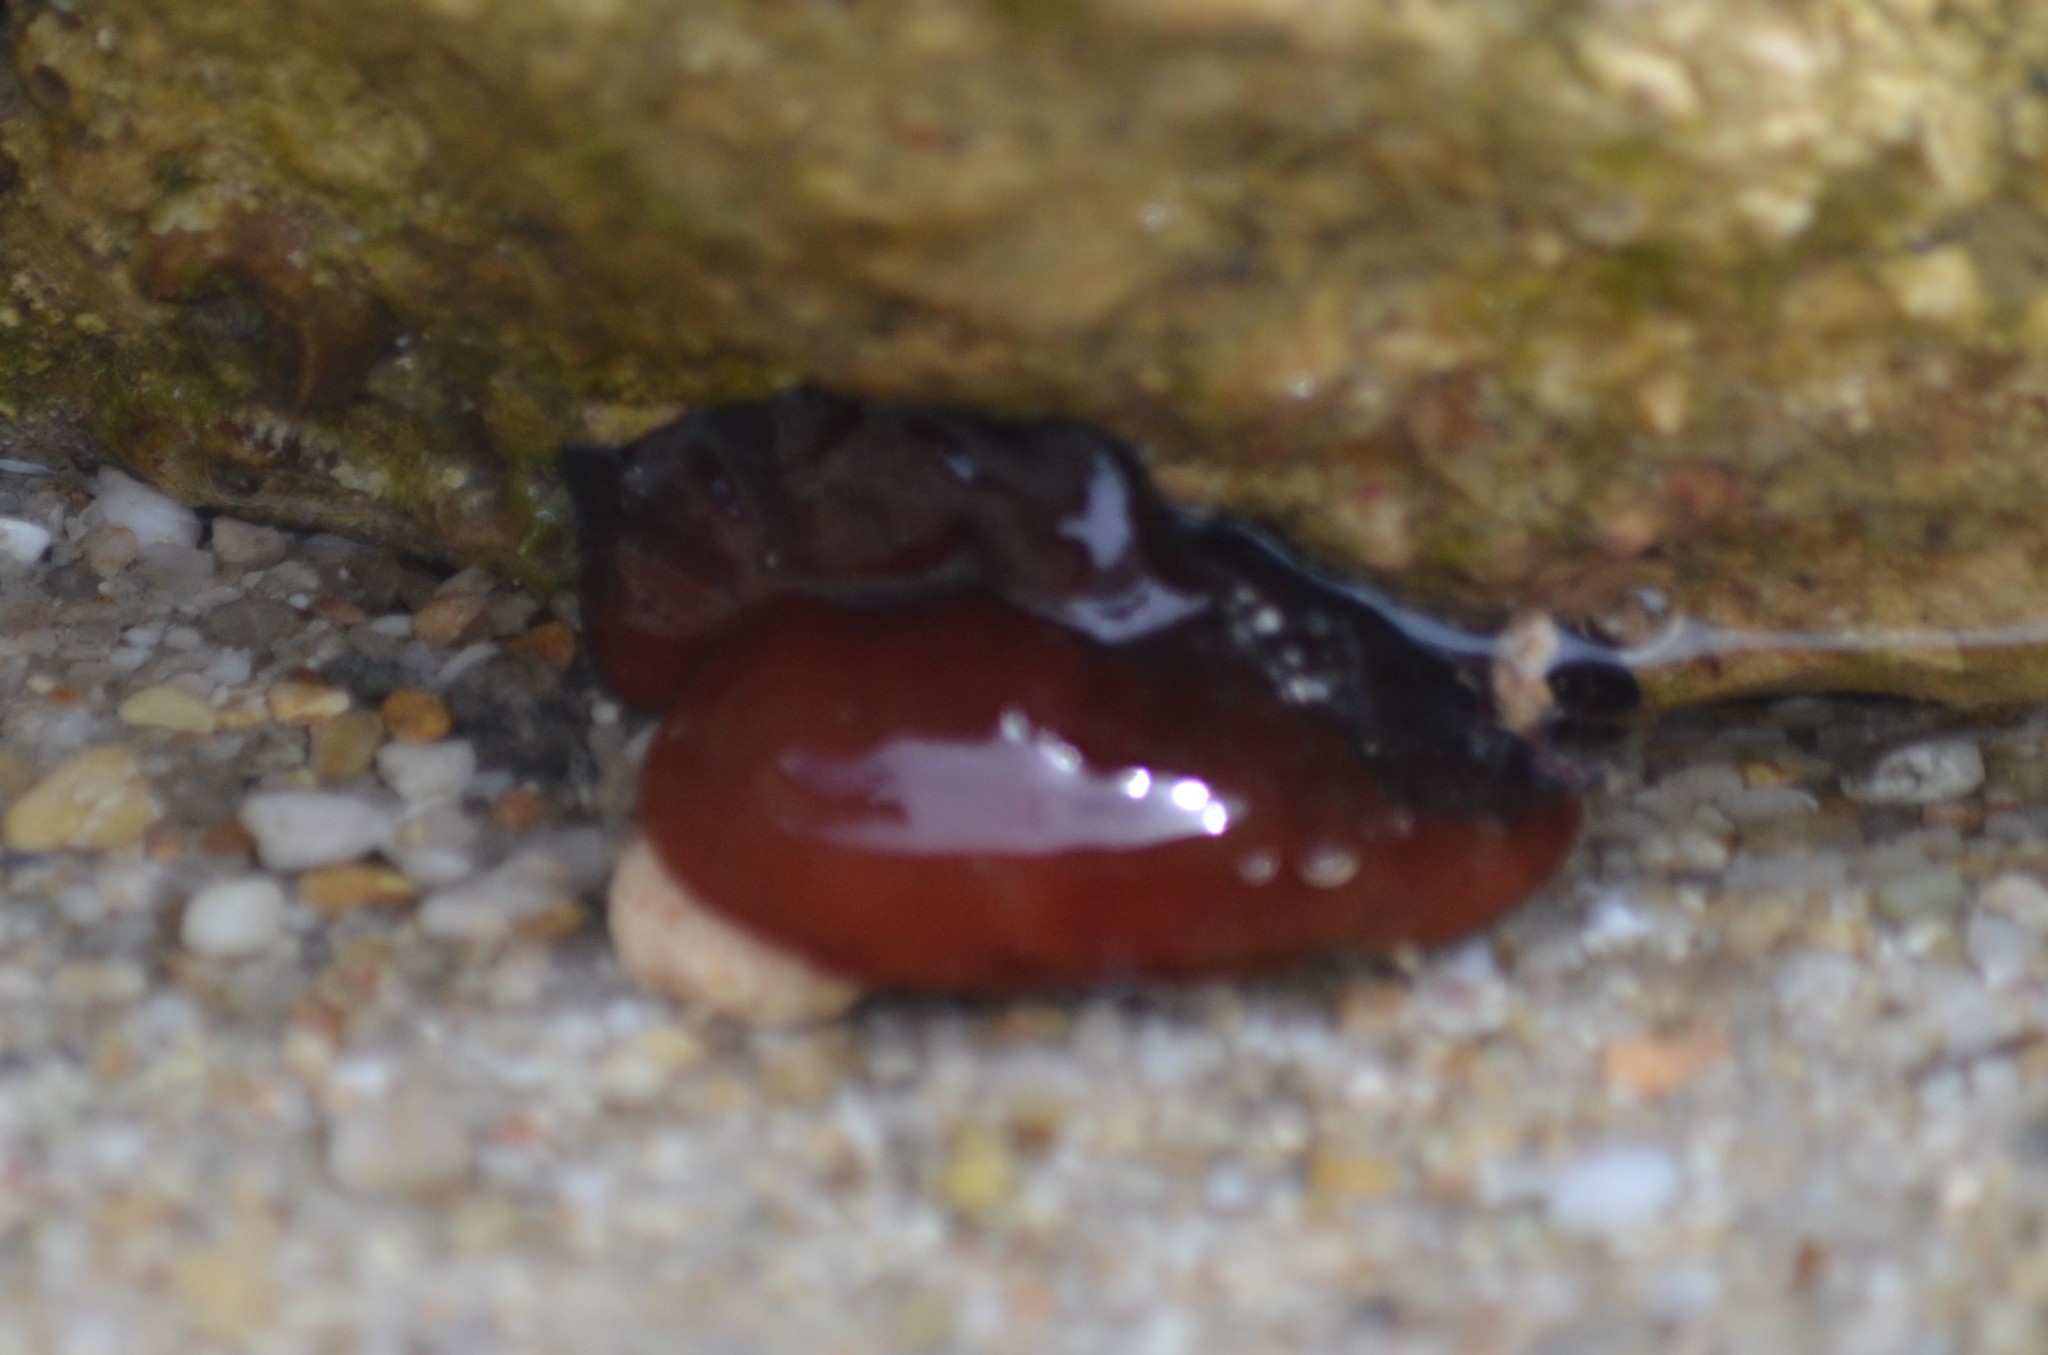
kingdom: Animalia
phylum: Cnidaria
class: Anthozoa
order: Actiniaria
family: Actiniidae
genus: Actinia
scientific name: Actinia mediterranea
